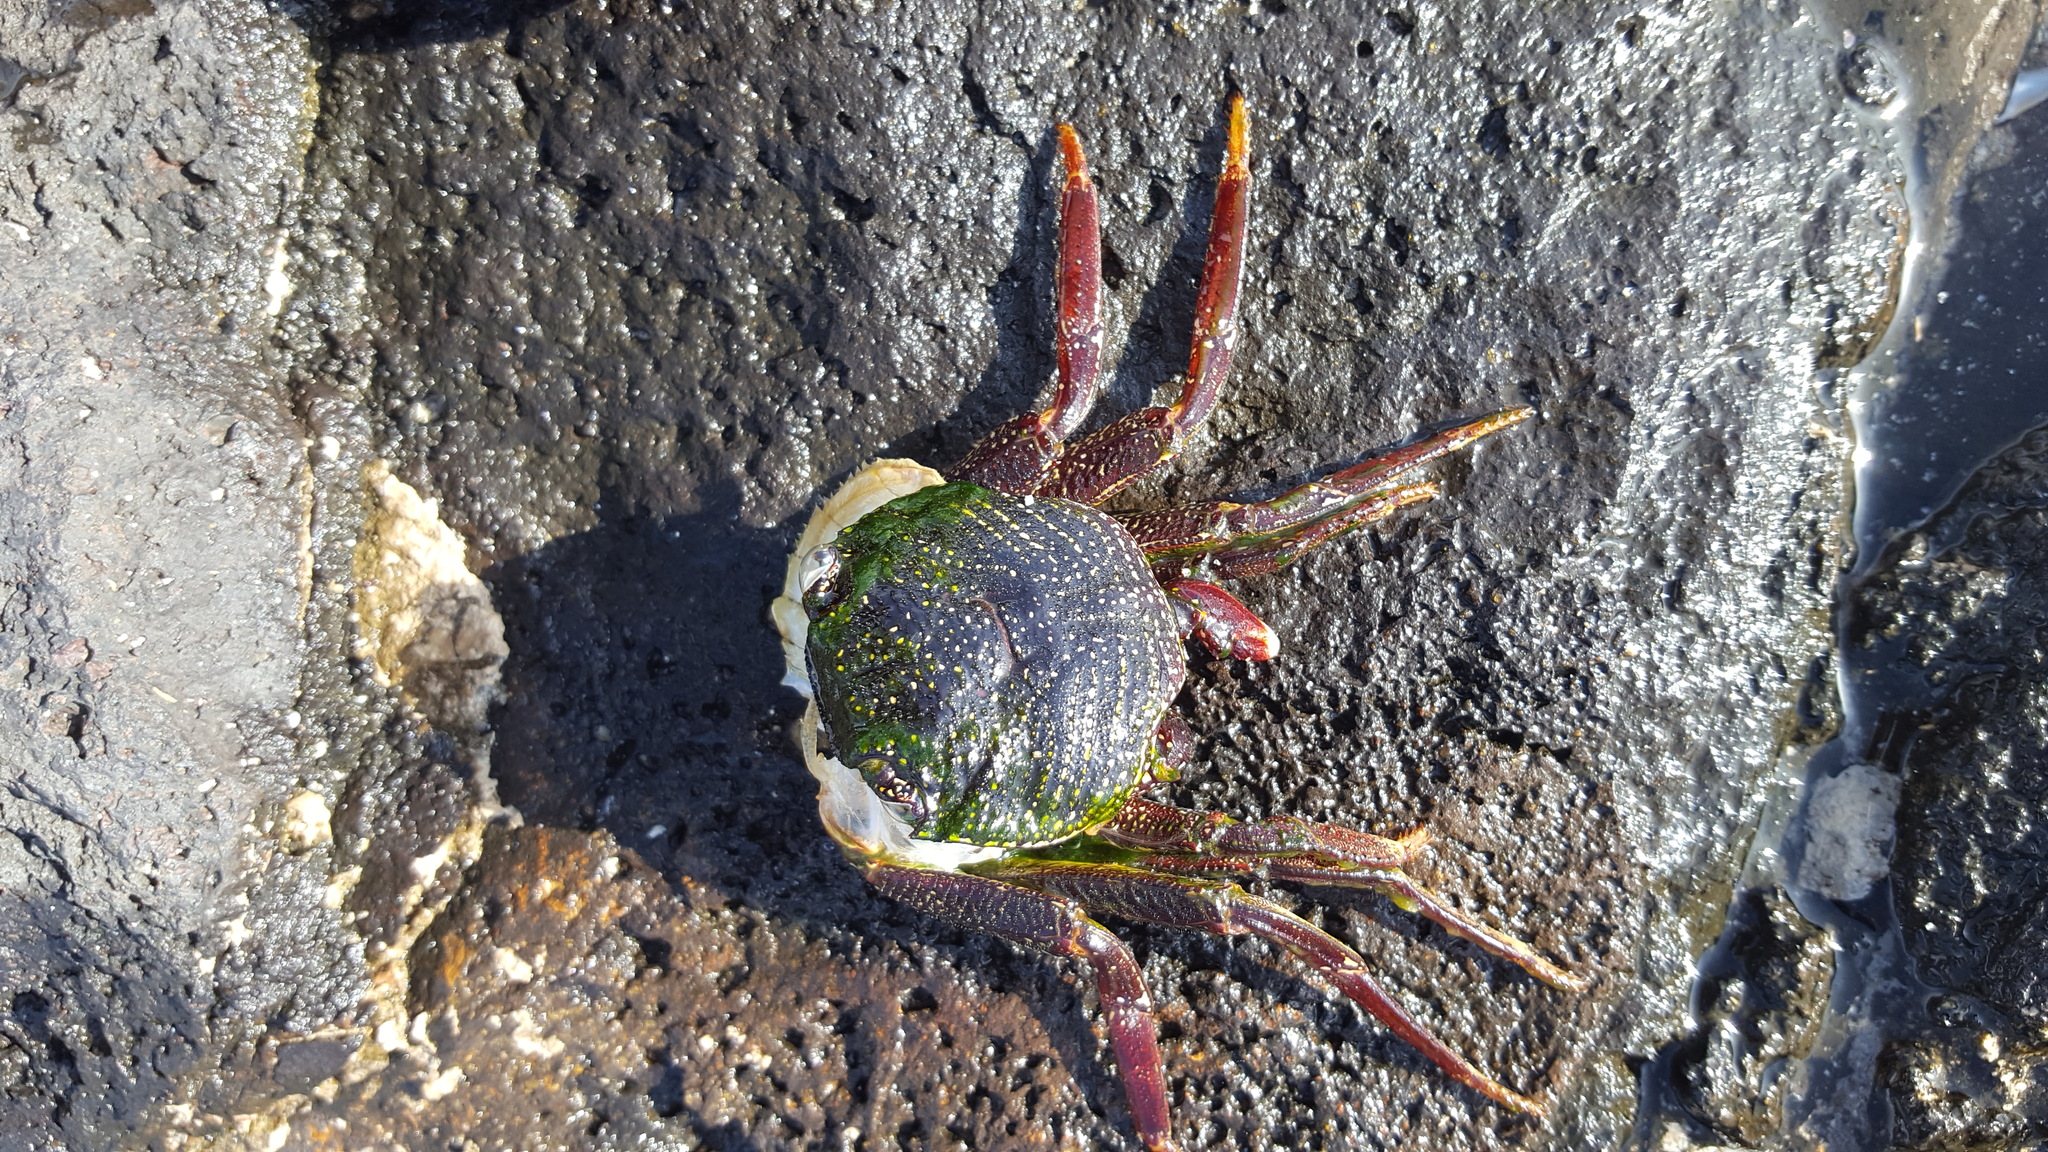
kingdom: Animalia
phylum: Arthropoda
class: Malacostraca
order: Decapoda
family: Grapsidae
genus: Grapsus
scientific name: Grapsus tenuicrustatus
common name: Natal lightfoot crab
